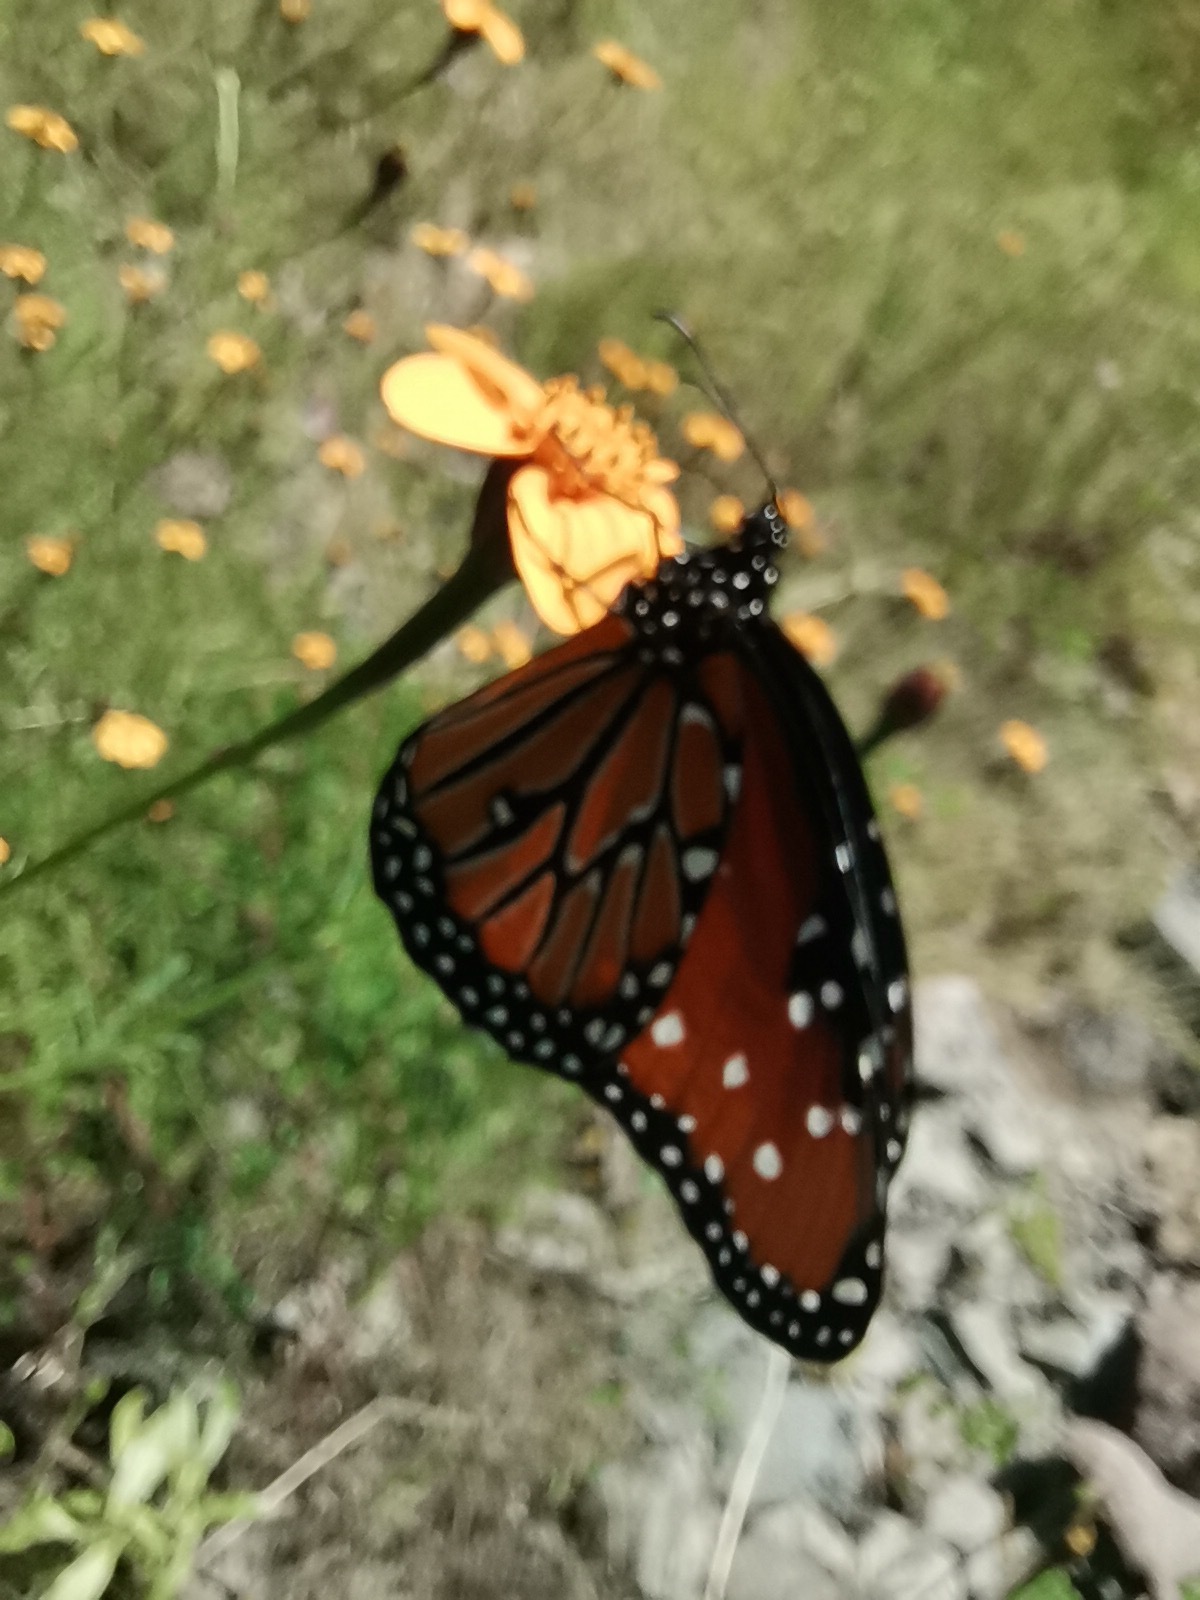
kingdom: Animalia
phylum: Arthropoda
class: Insecta
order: Lepidoptera
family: Nymphalidae
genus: Danaus
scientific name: Danaus gilippus
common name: Queen
